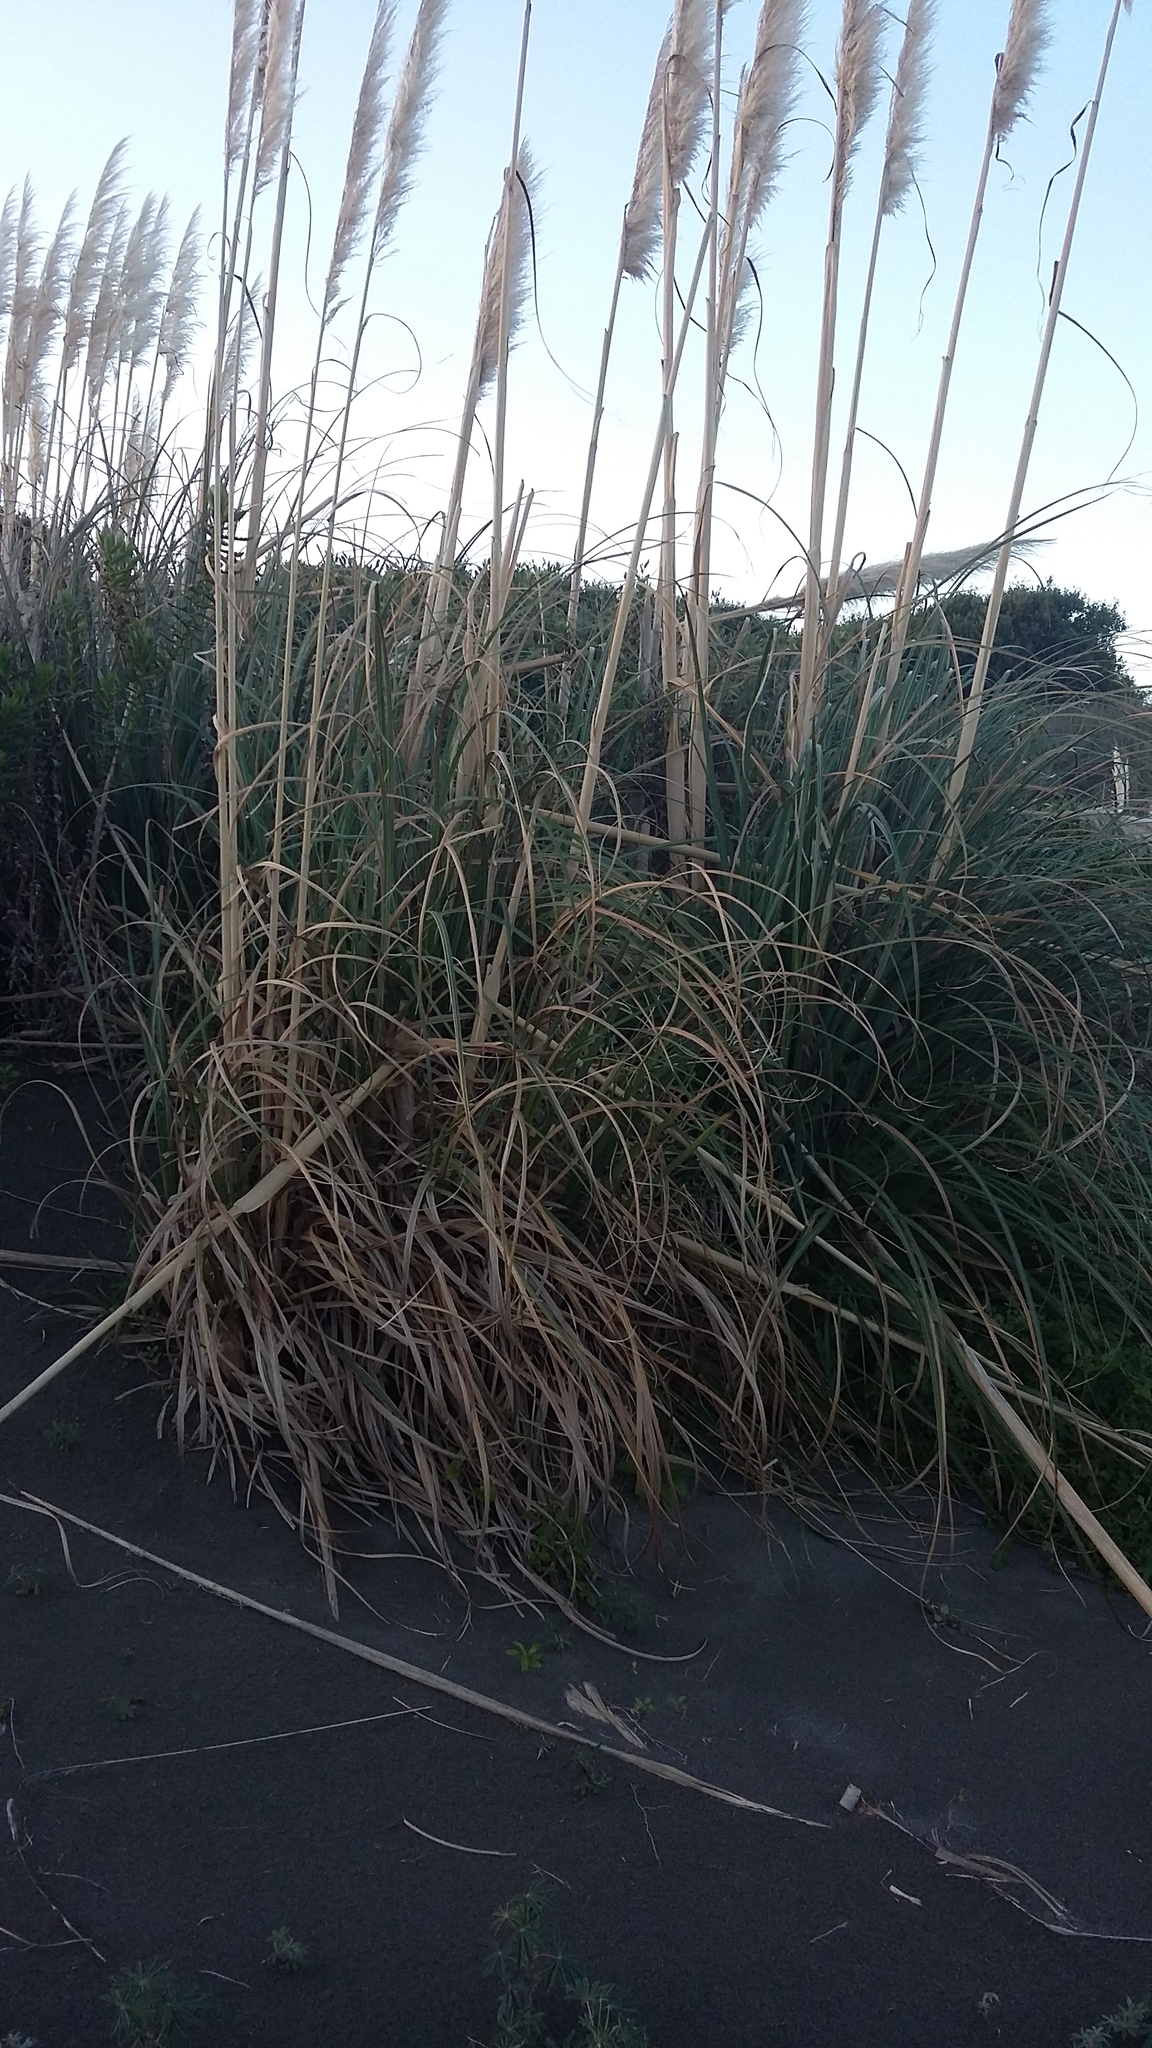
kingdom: Plantae
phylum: Tracheophyta
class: Liliopsida
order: Poales
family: Poaceae
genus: Cortaderia
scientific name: Cortaderia selloana
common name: Uruguayan pampas grass
